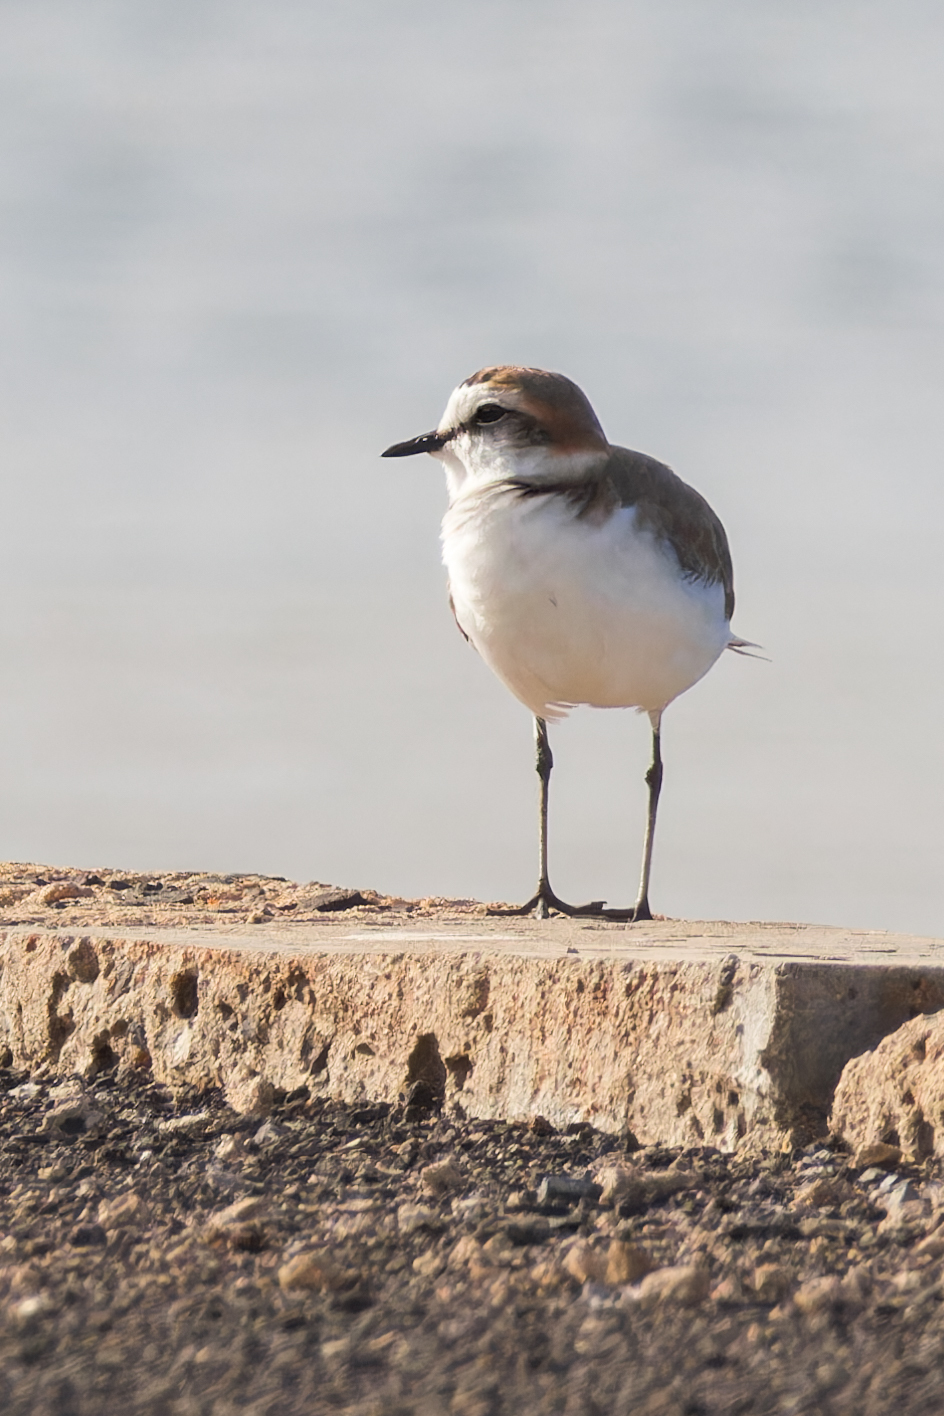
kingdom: Animalia
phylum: Chordata
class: Aves
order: Charadriiformes
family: Charadriidae
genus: Charadrius
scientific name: Charadrius alexandrinus
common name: Kentish plover
